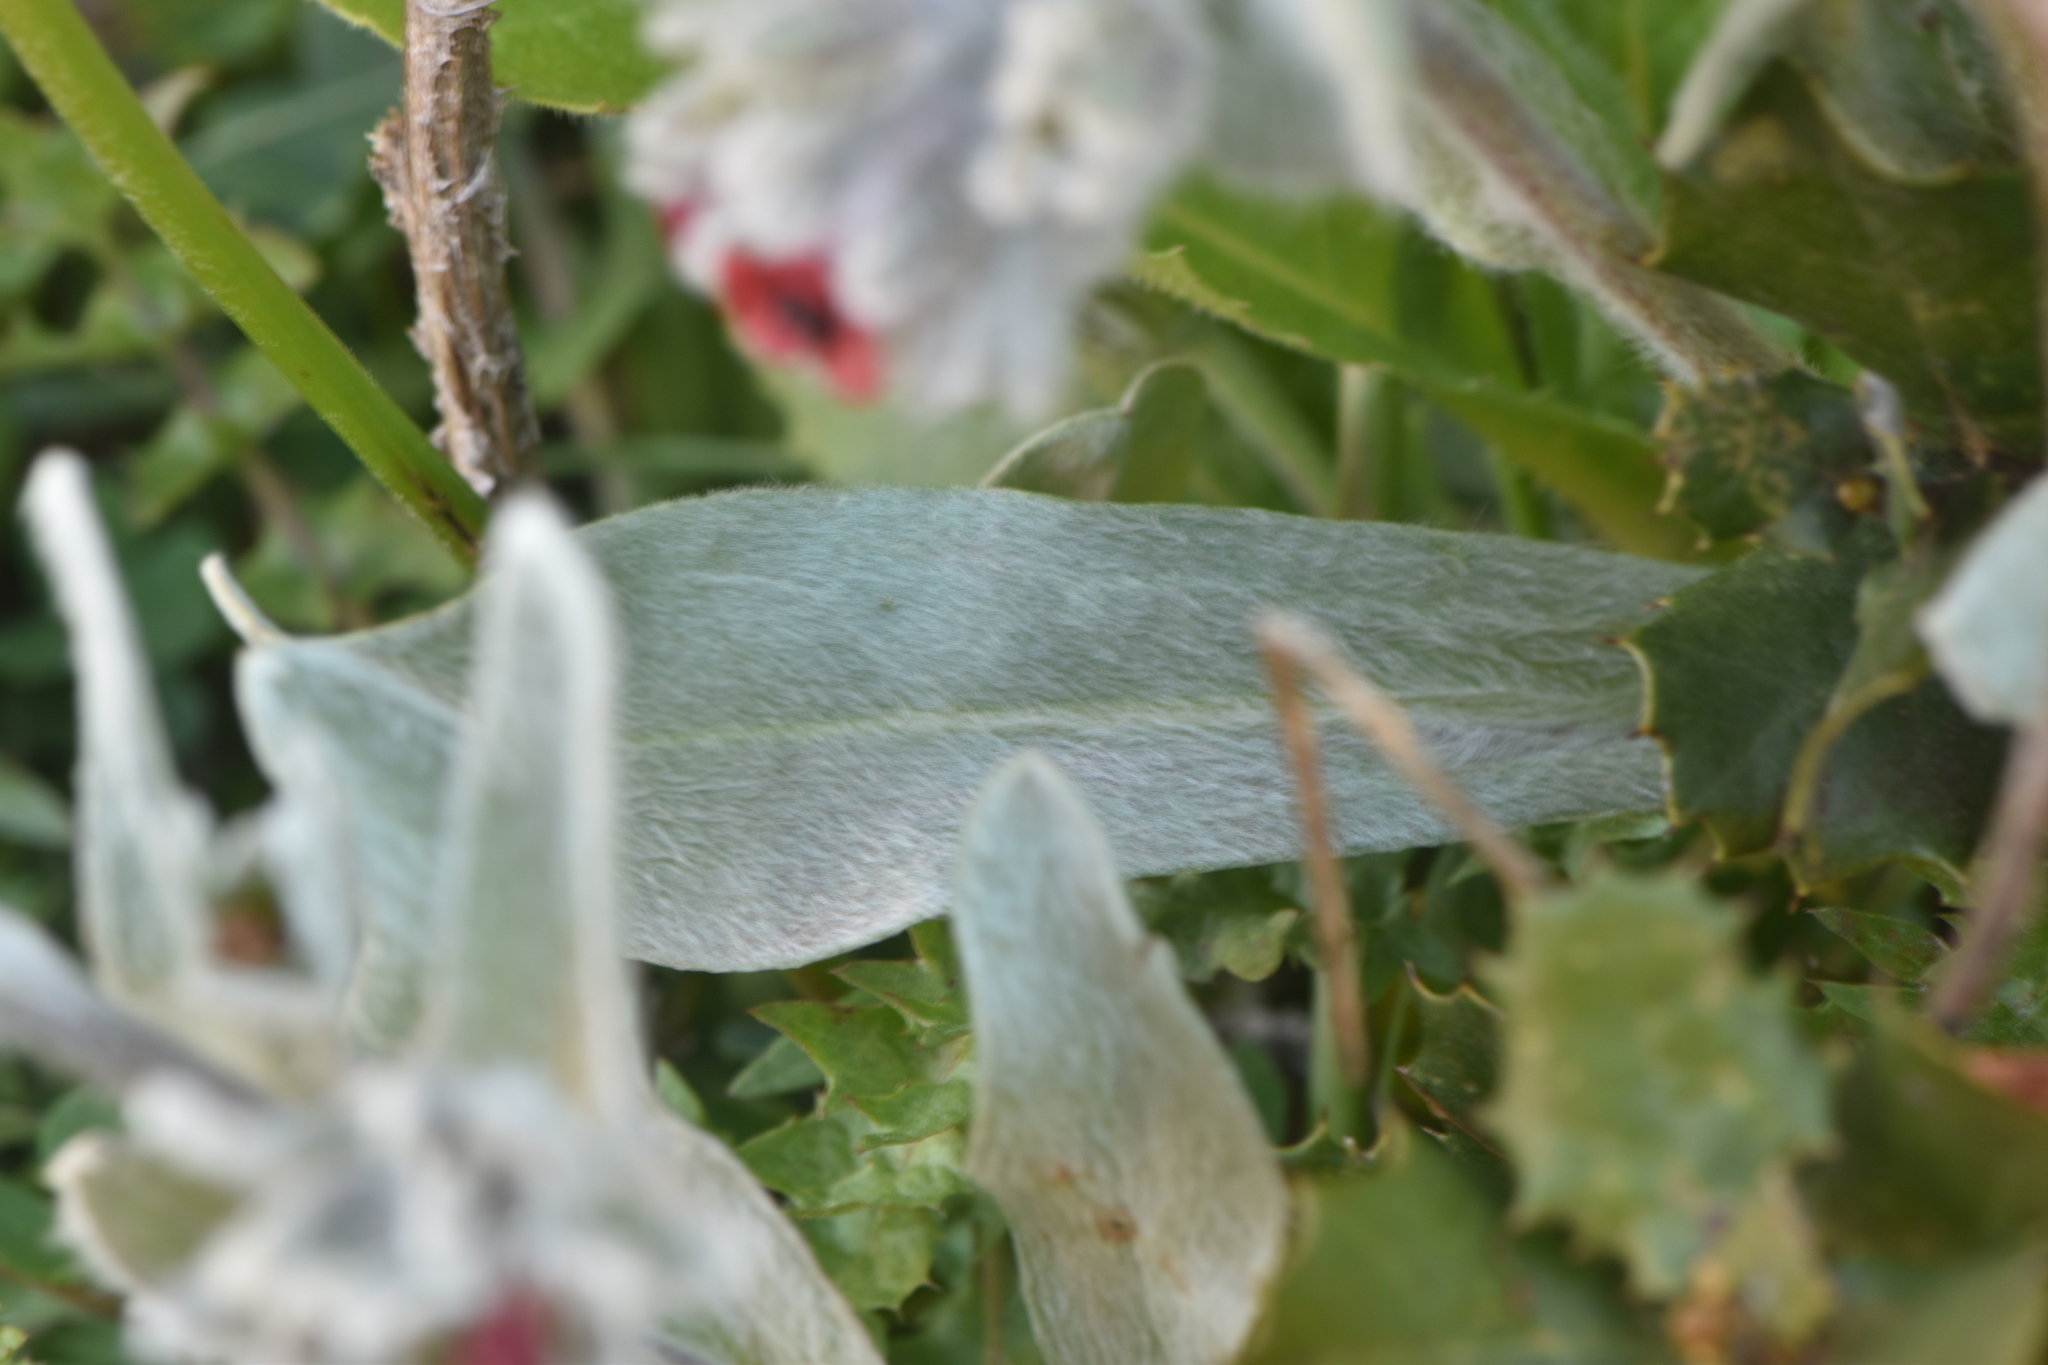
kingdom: Plantae
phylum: Tracheophyta
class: Magnoliopsida
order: Boraginales
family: Boraginaceae
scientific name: Boraginaceae
